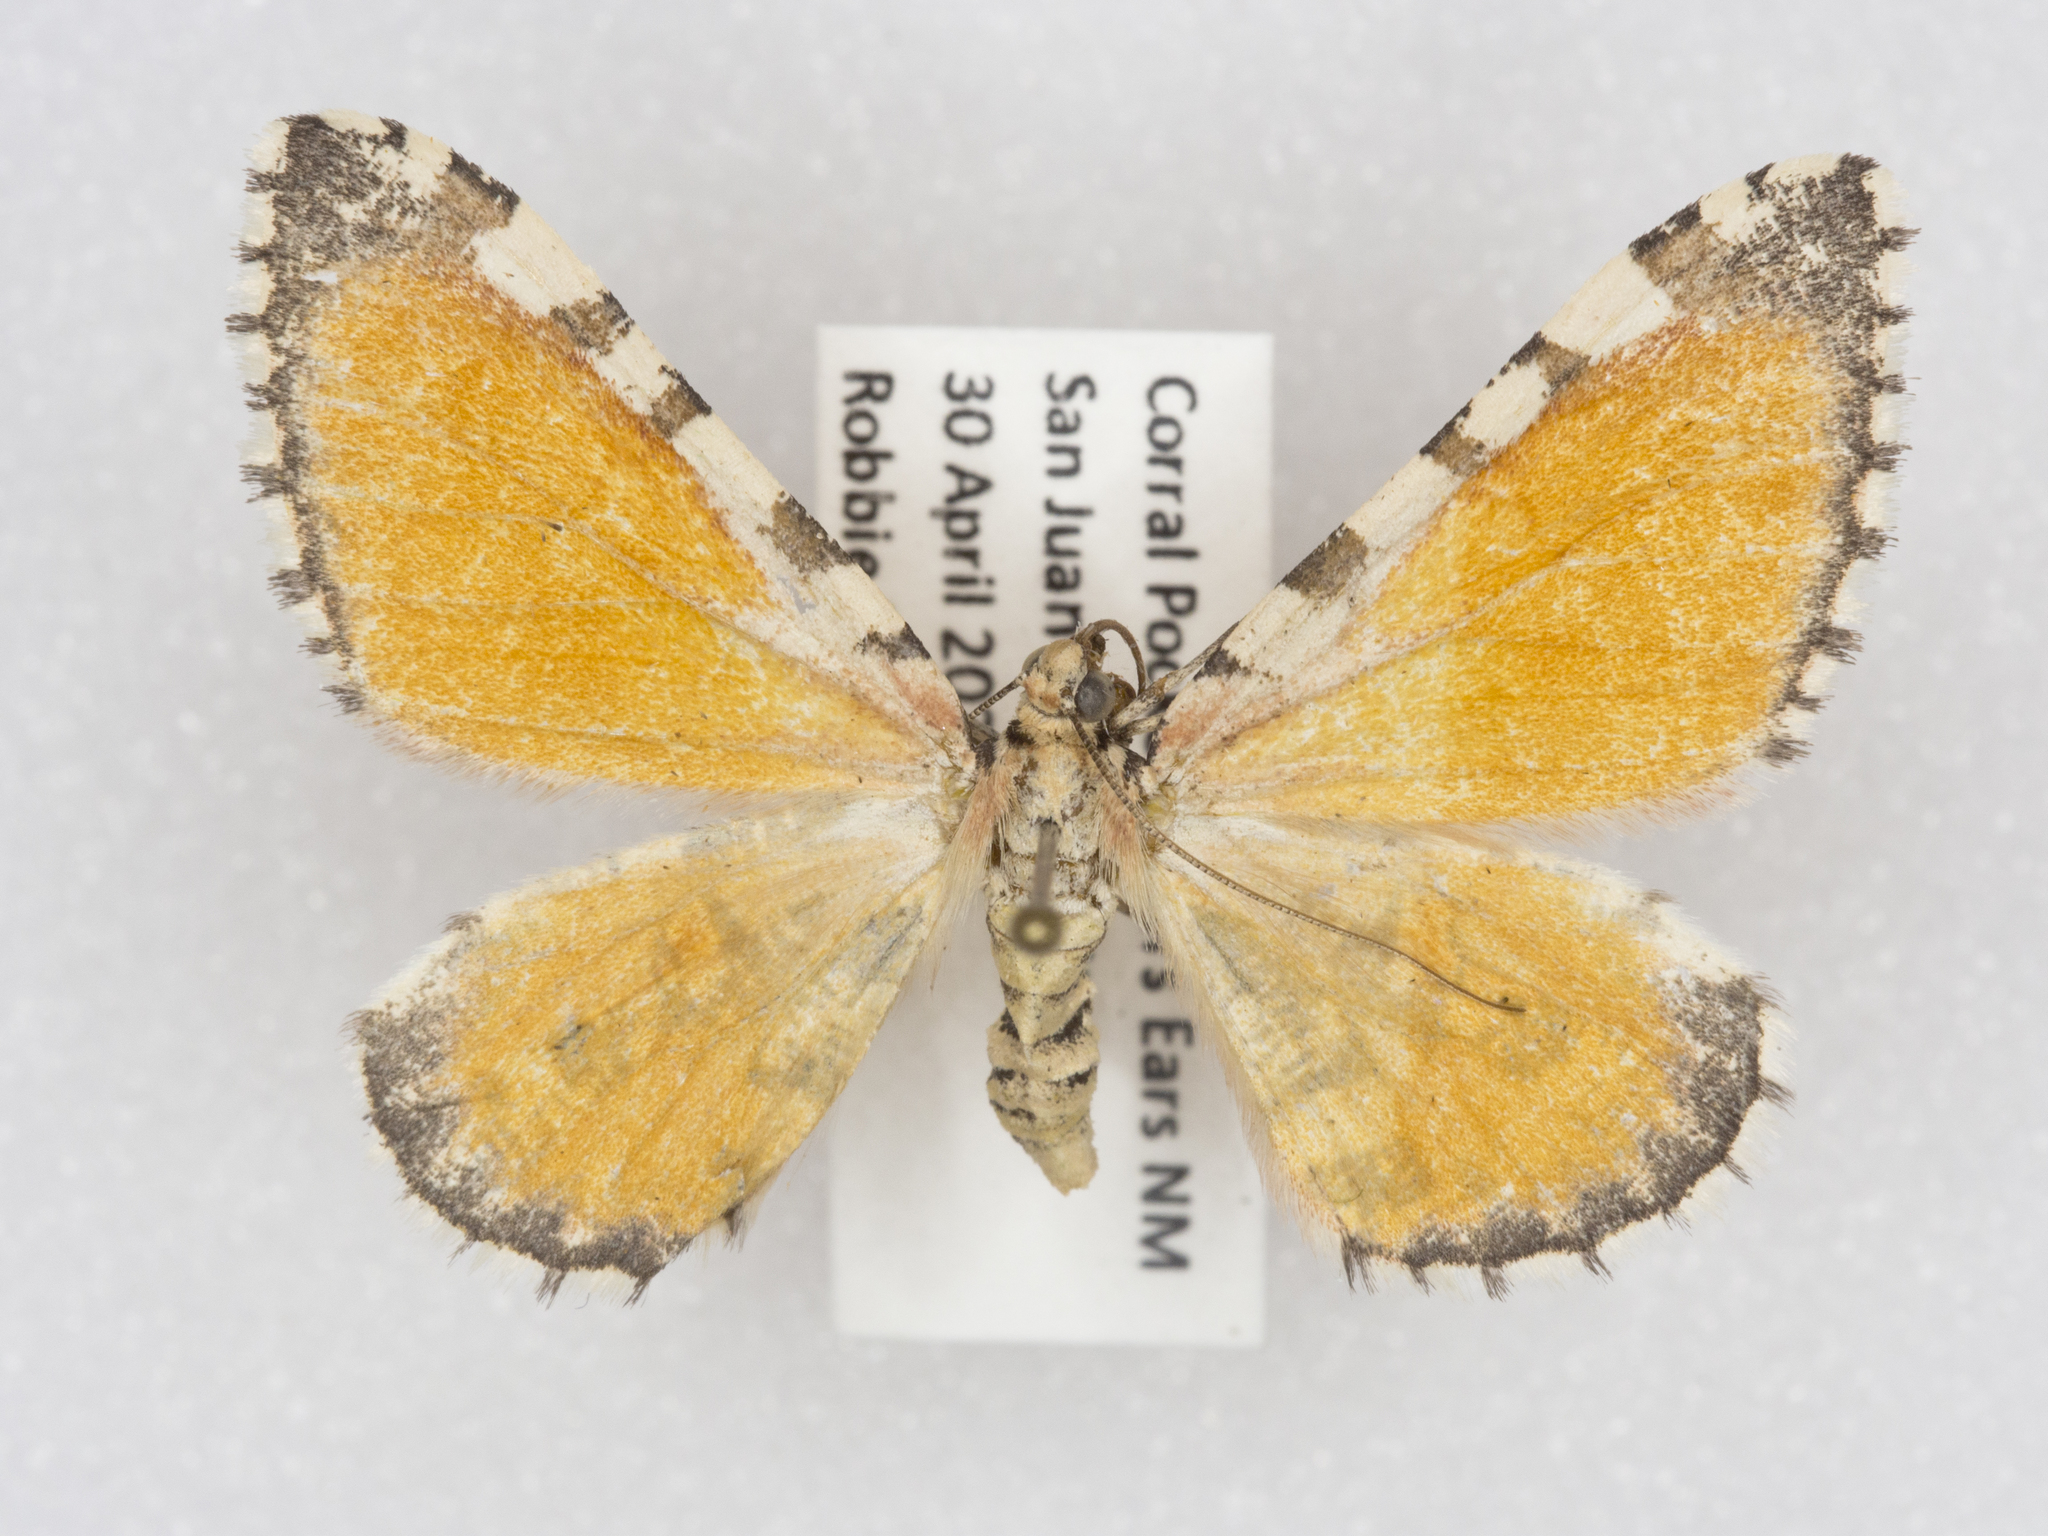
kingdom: Animalia
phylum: Arthropoda
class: Insecta
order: Lepidoptera
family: Geometridae
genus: Stamnodes
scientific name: Stamnodes tessellata
